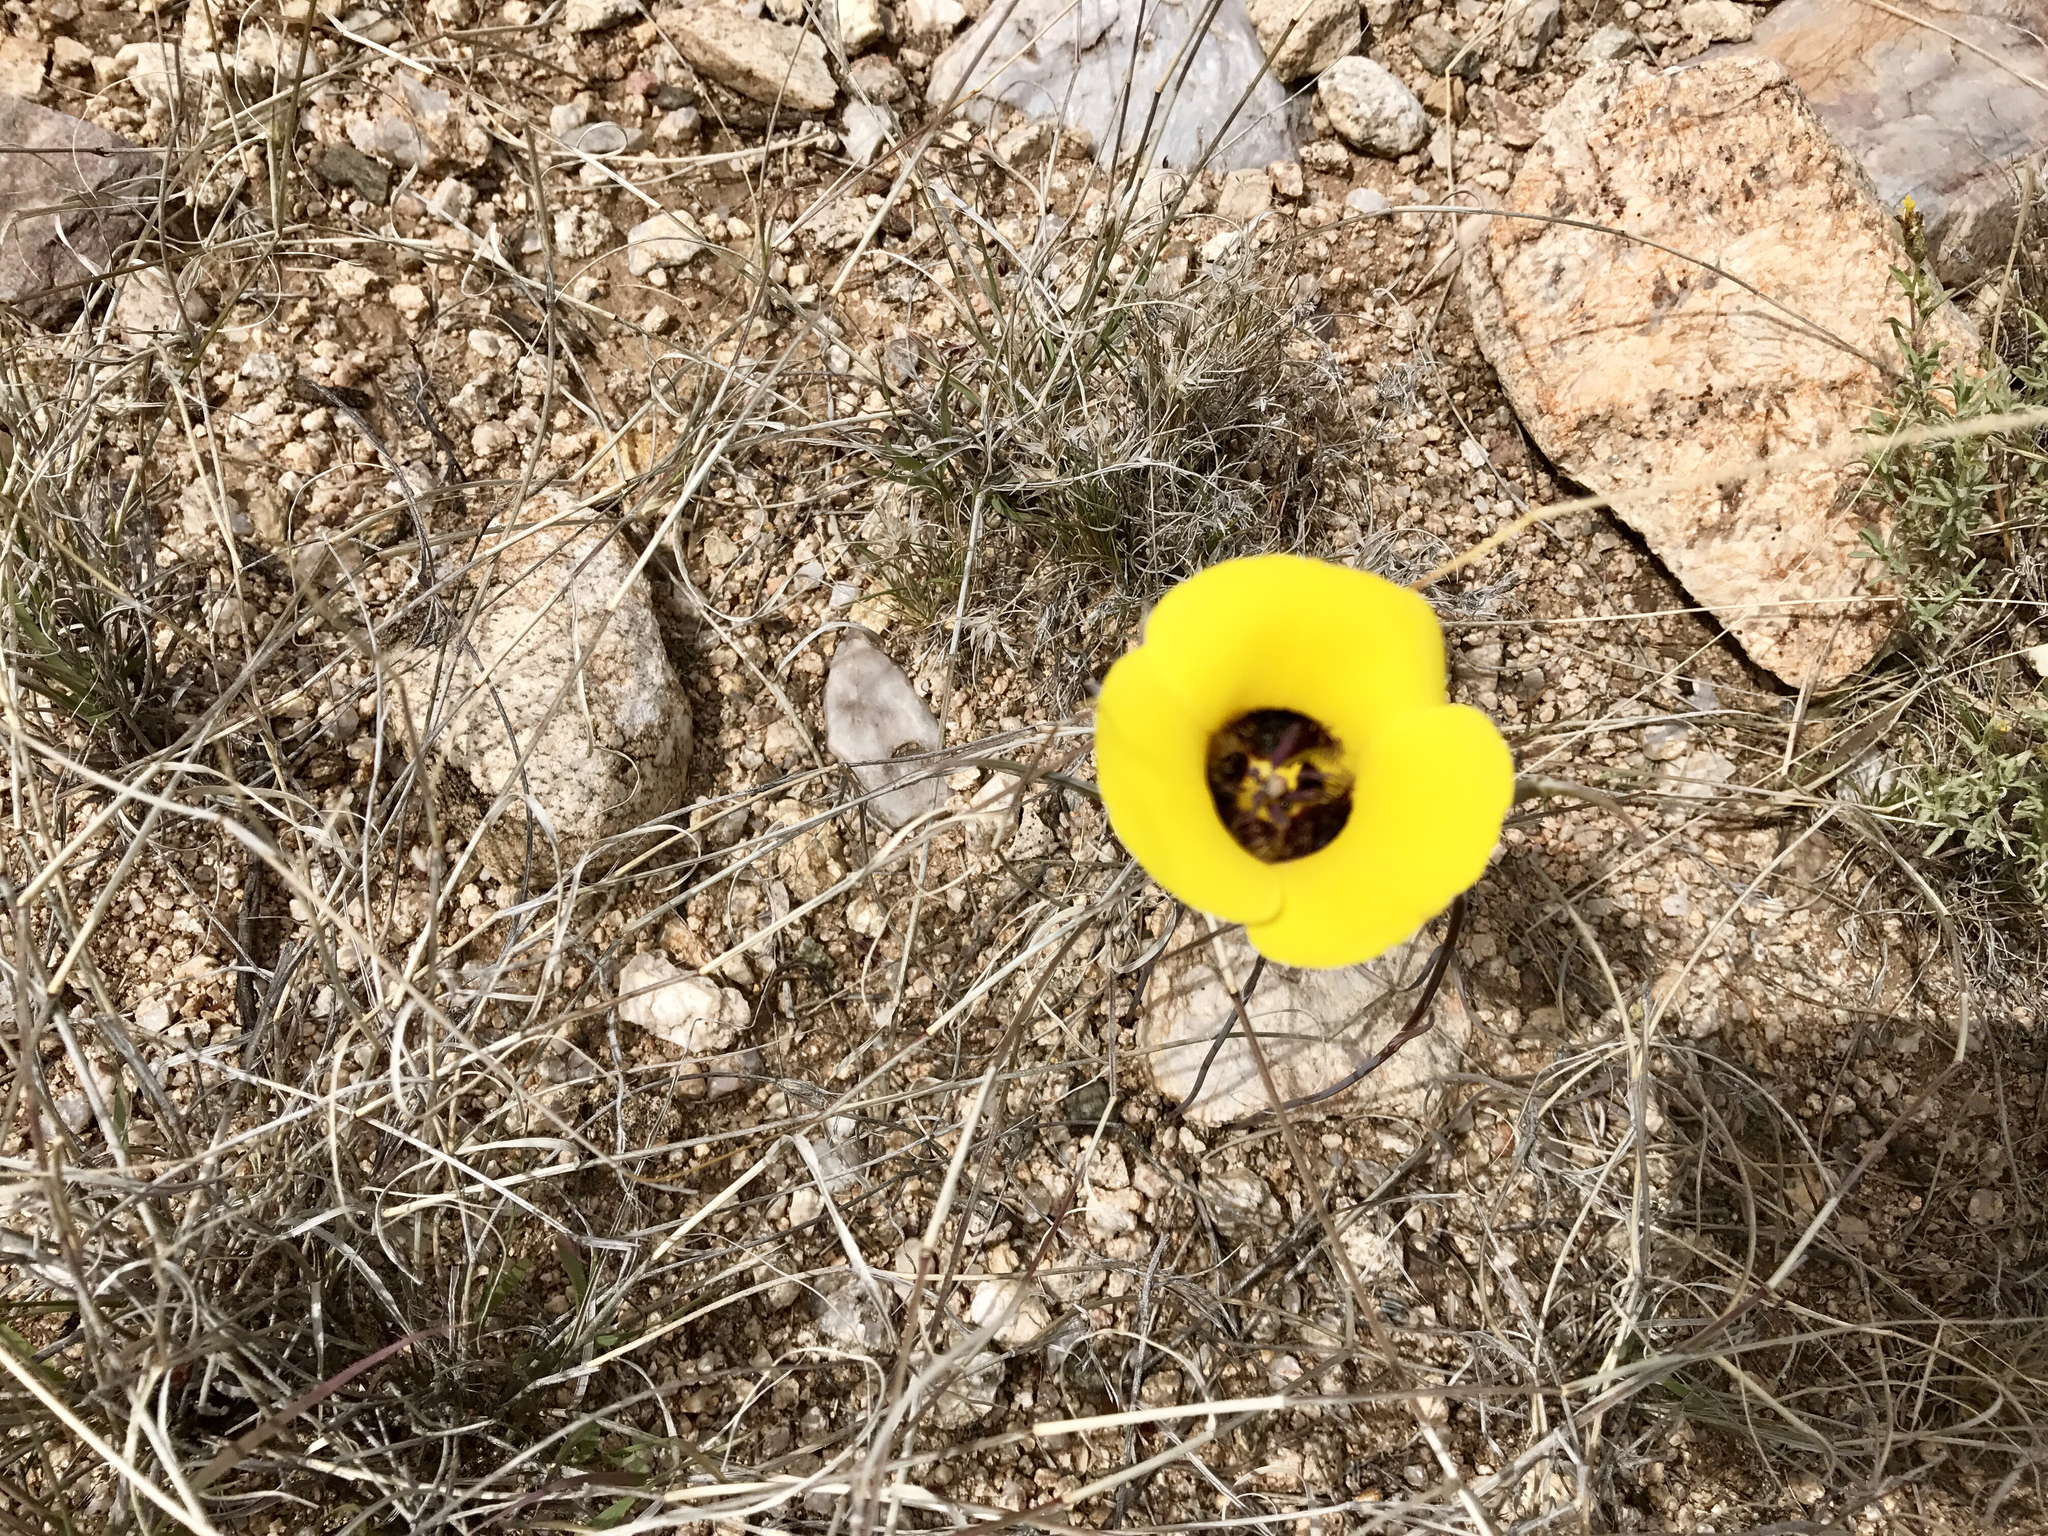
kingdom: Plantae
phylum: Tracheophyta
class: Liliopsida
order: Liliales
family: Liliaceae
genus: Calochortus
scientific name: Calochortus kennedyi
